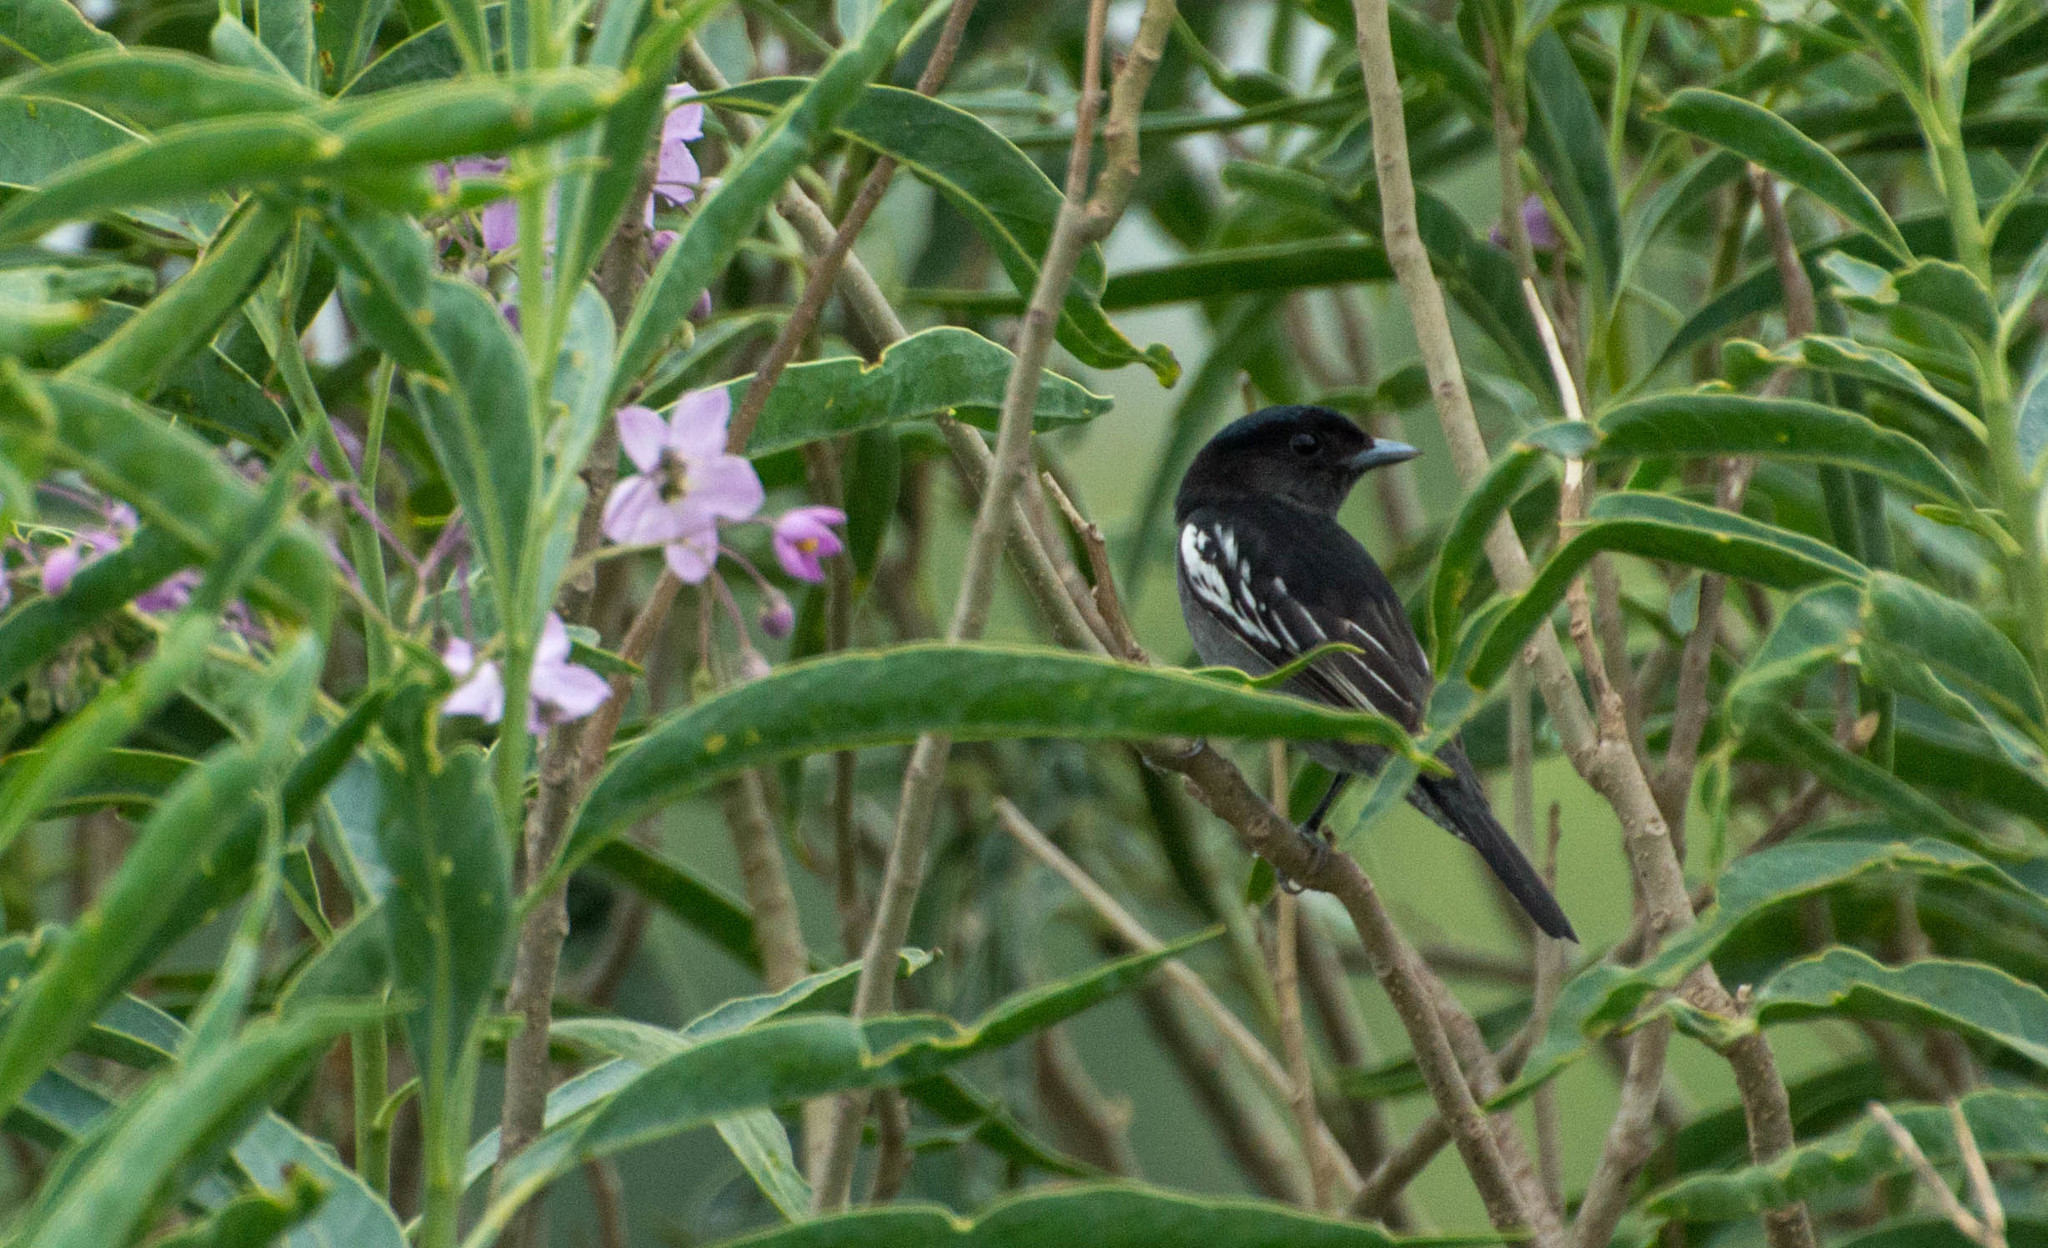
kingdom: Animalia
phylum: Chordata
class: Aves
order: Passeriformes
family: Cotingidae
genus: Pachyramphus
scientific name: Pachyramphus polychopterus
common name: White-winged becard
